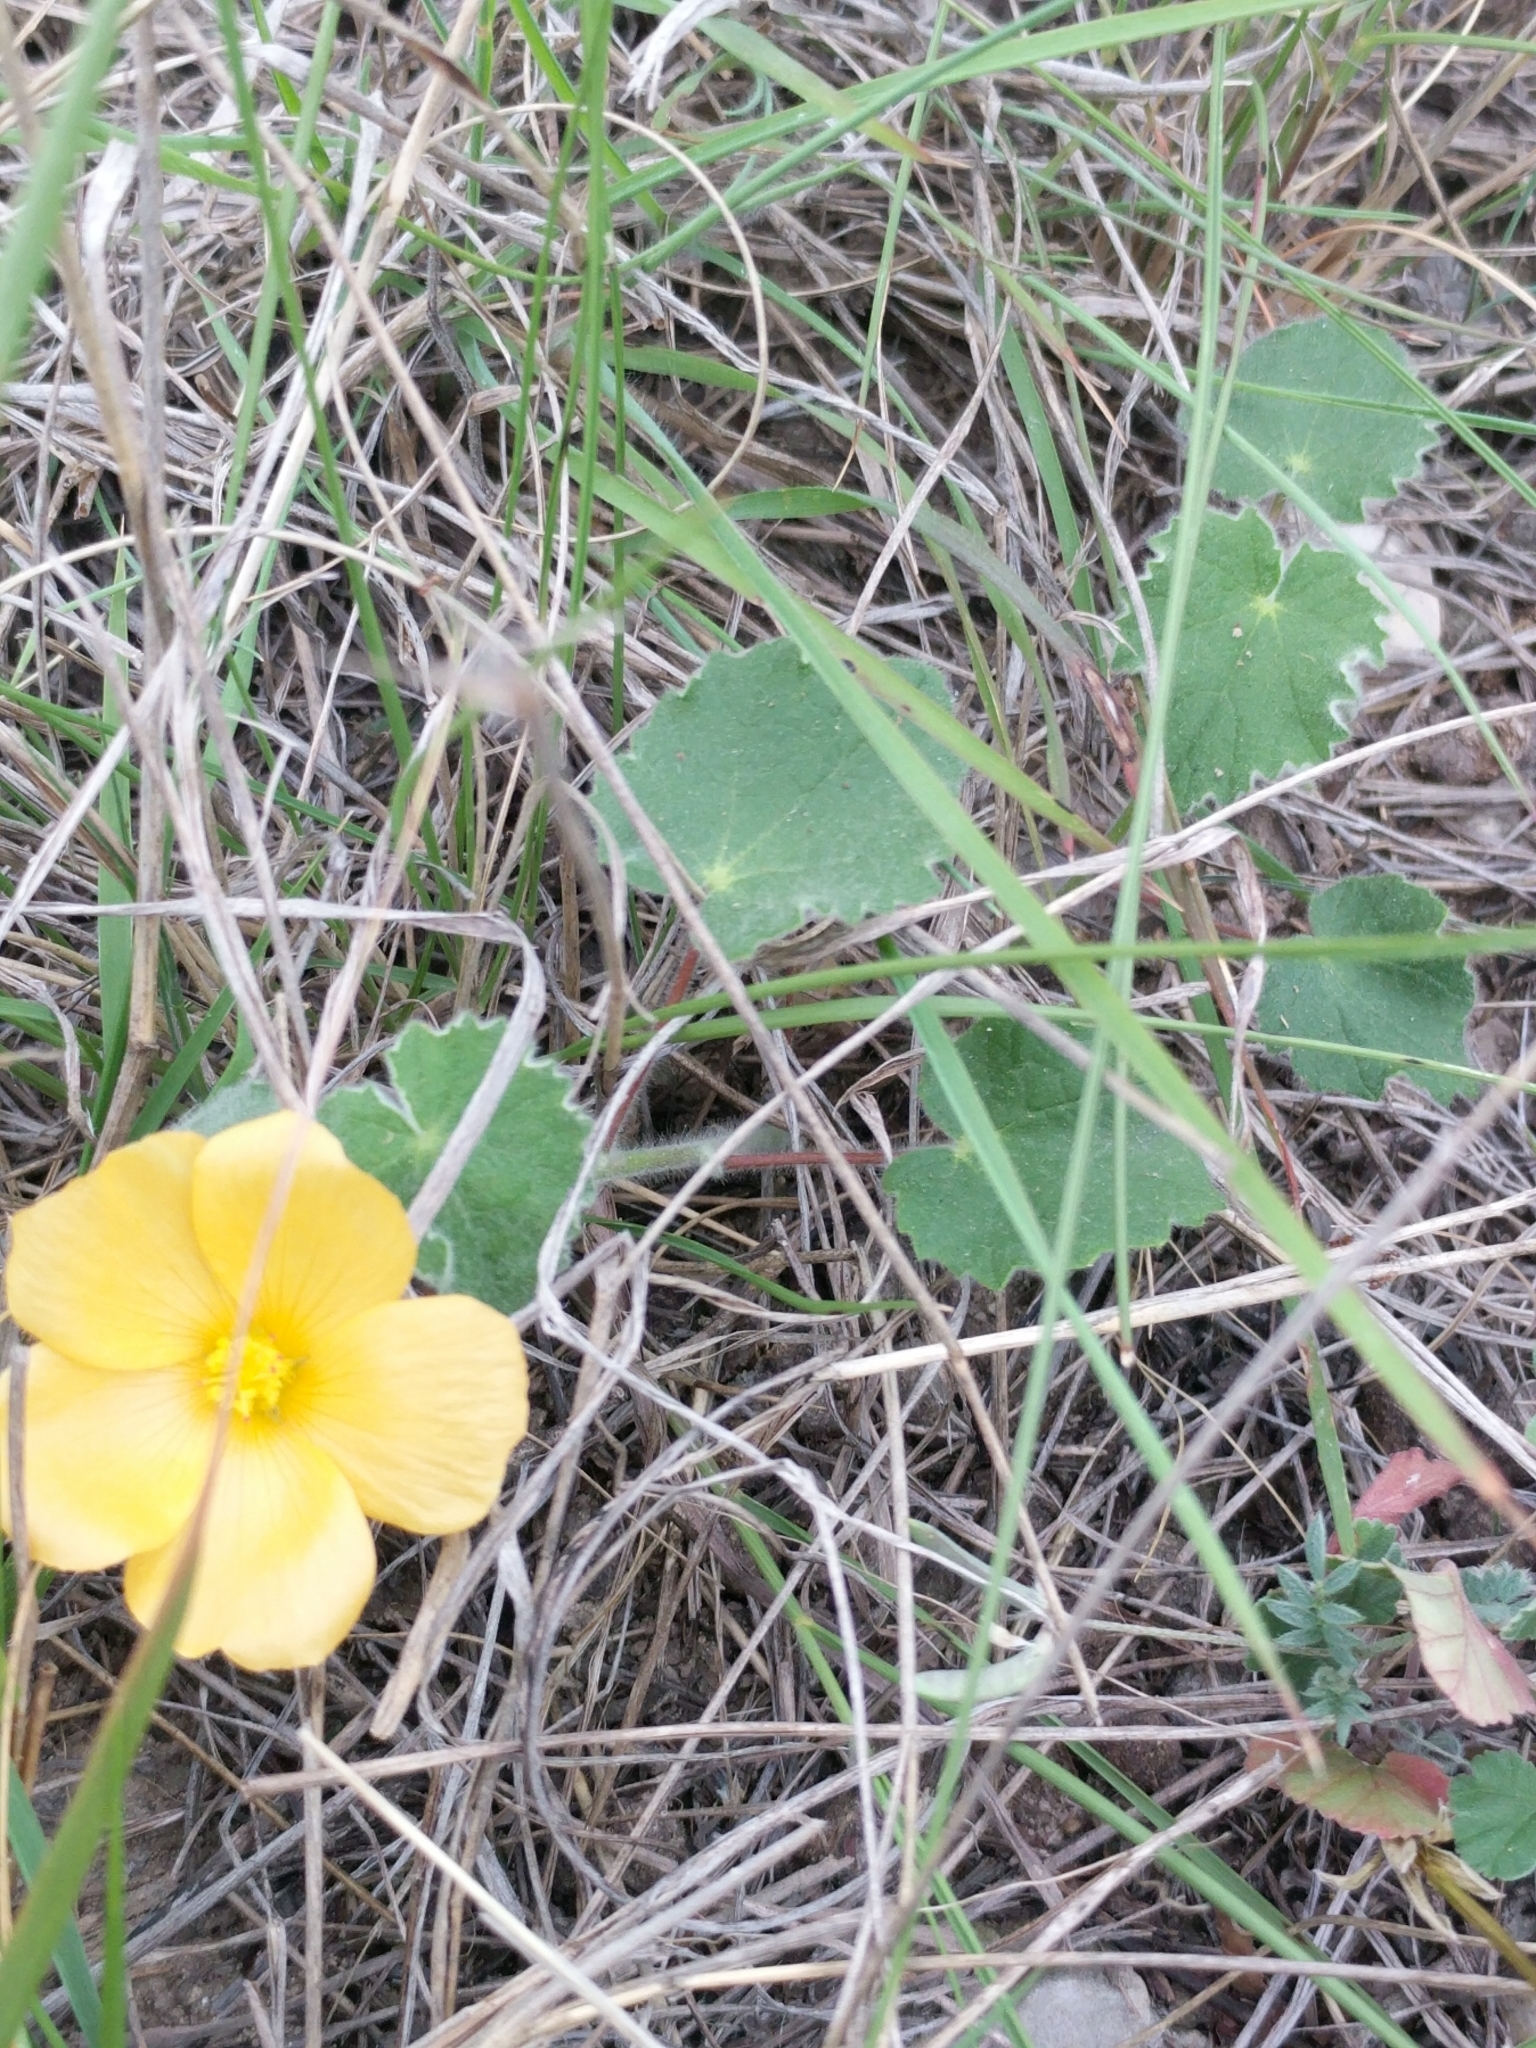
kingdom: Plantae
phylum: Tracheophyta
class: Magnoliopsida
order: Malvales
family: Malvaceae
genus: Abutilon
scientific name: Abutilon wrightii
